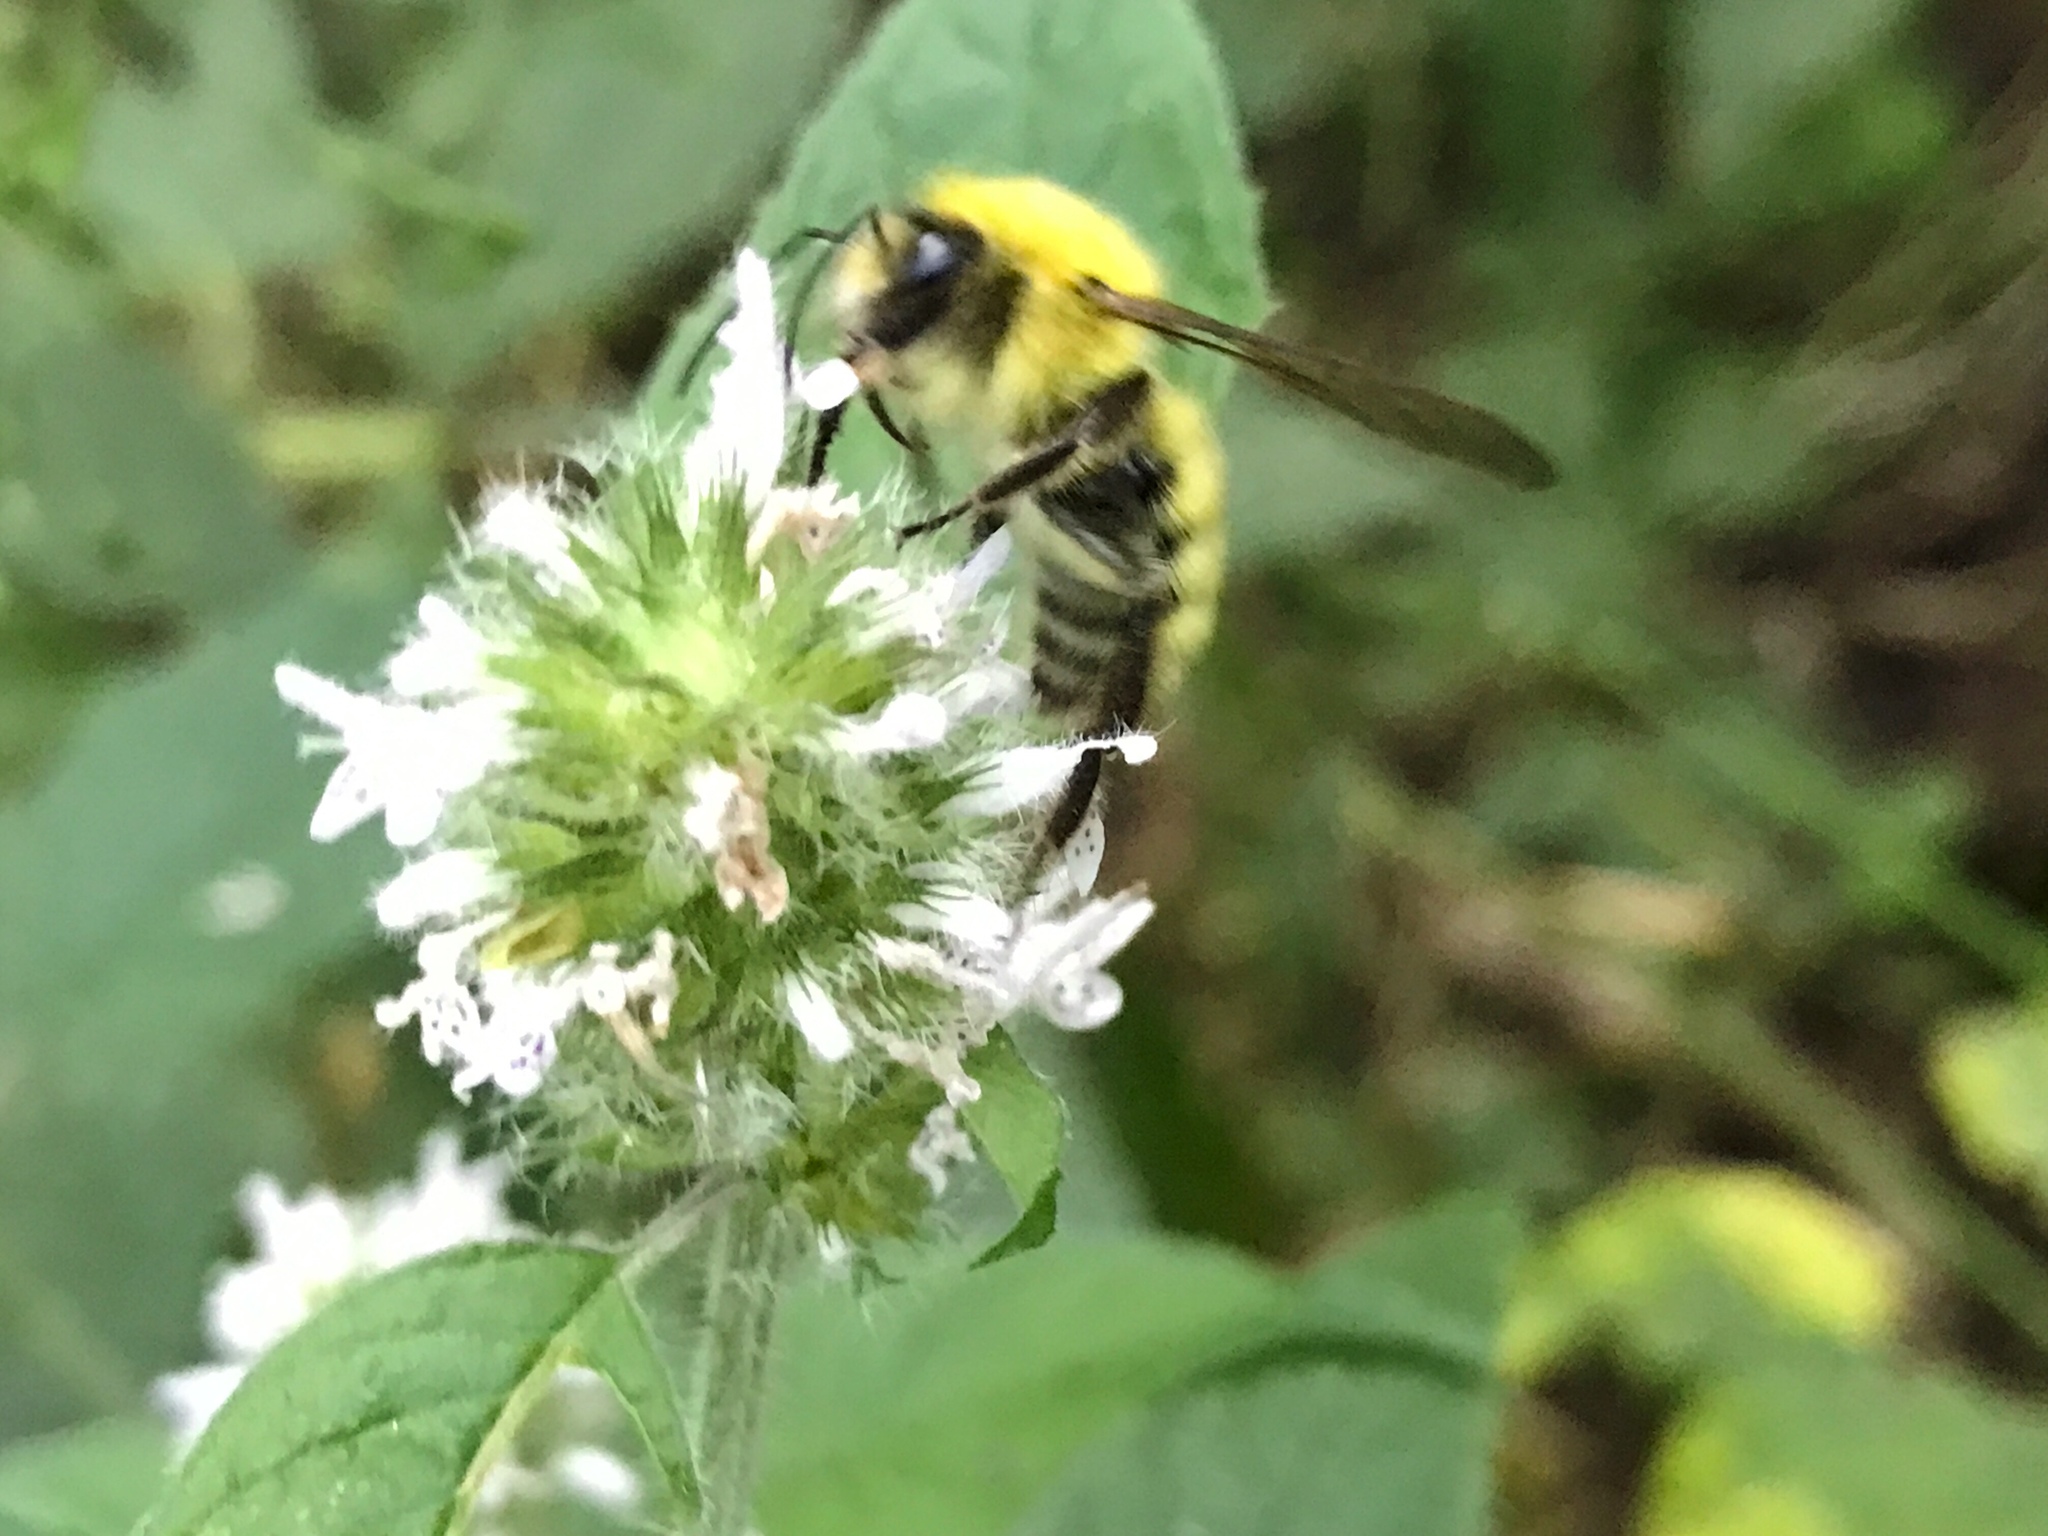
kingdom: Animalia
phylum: Arthropoda
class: Insecta
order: Hymenoptera
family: Apidae
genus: Bombus
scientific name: Bombus perplexus
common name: Confusing bumble bee
